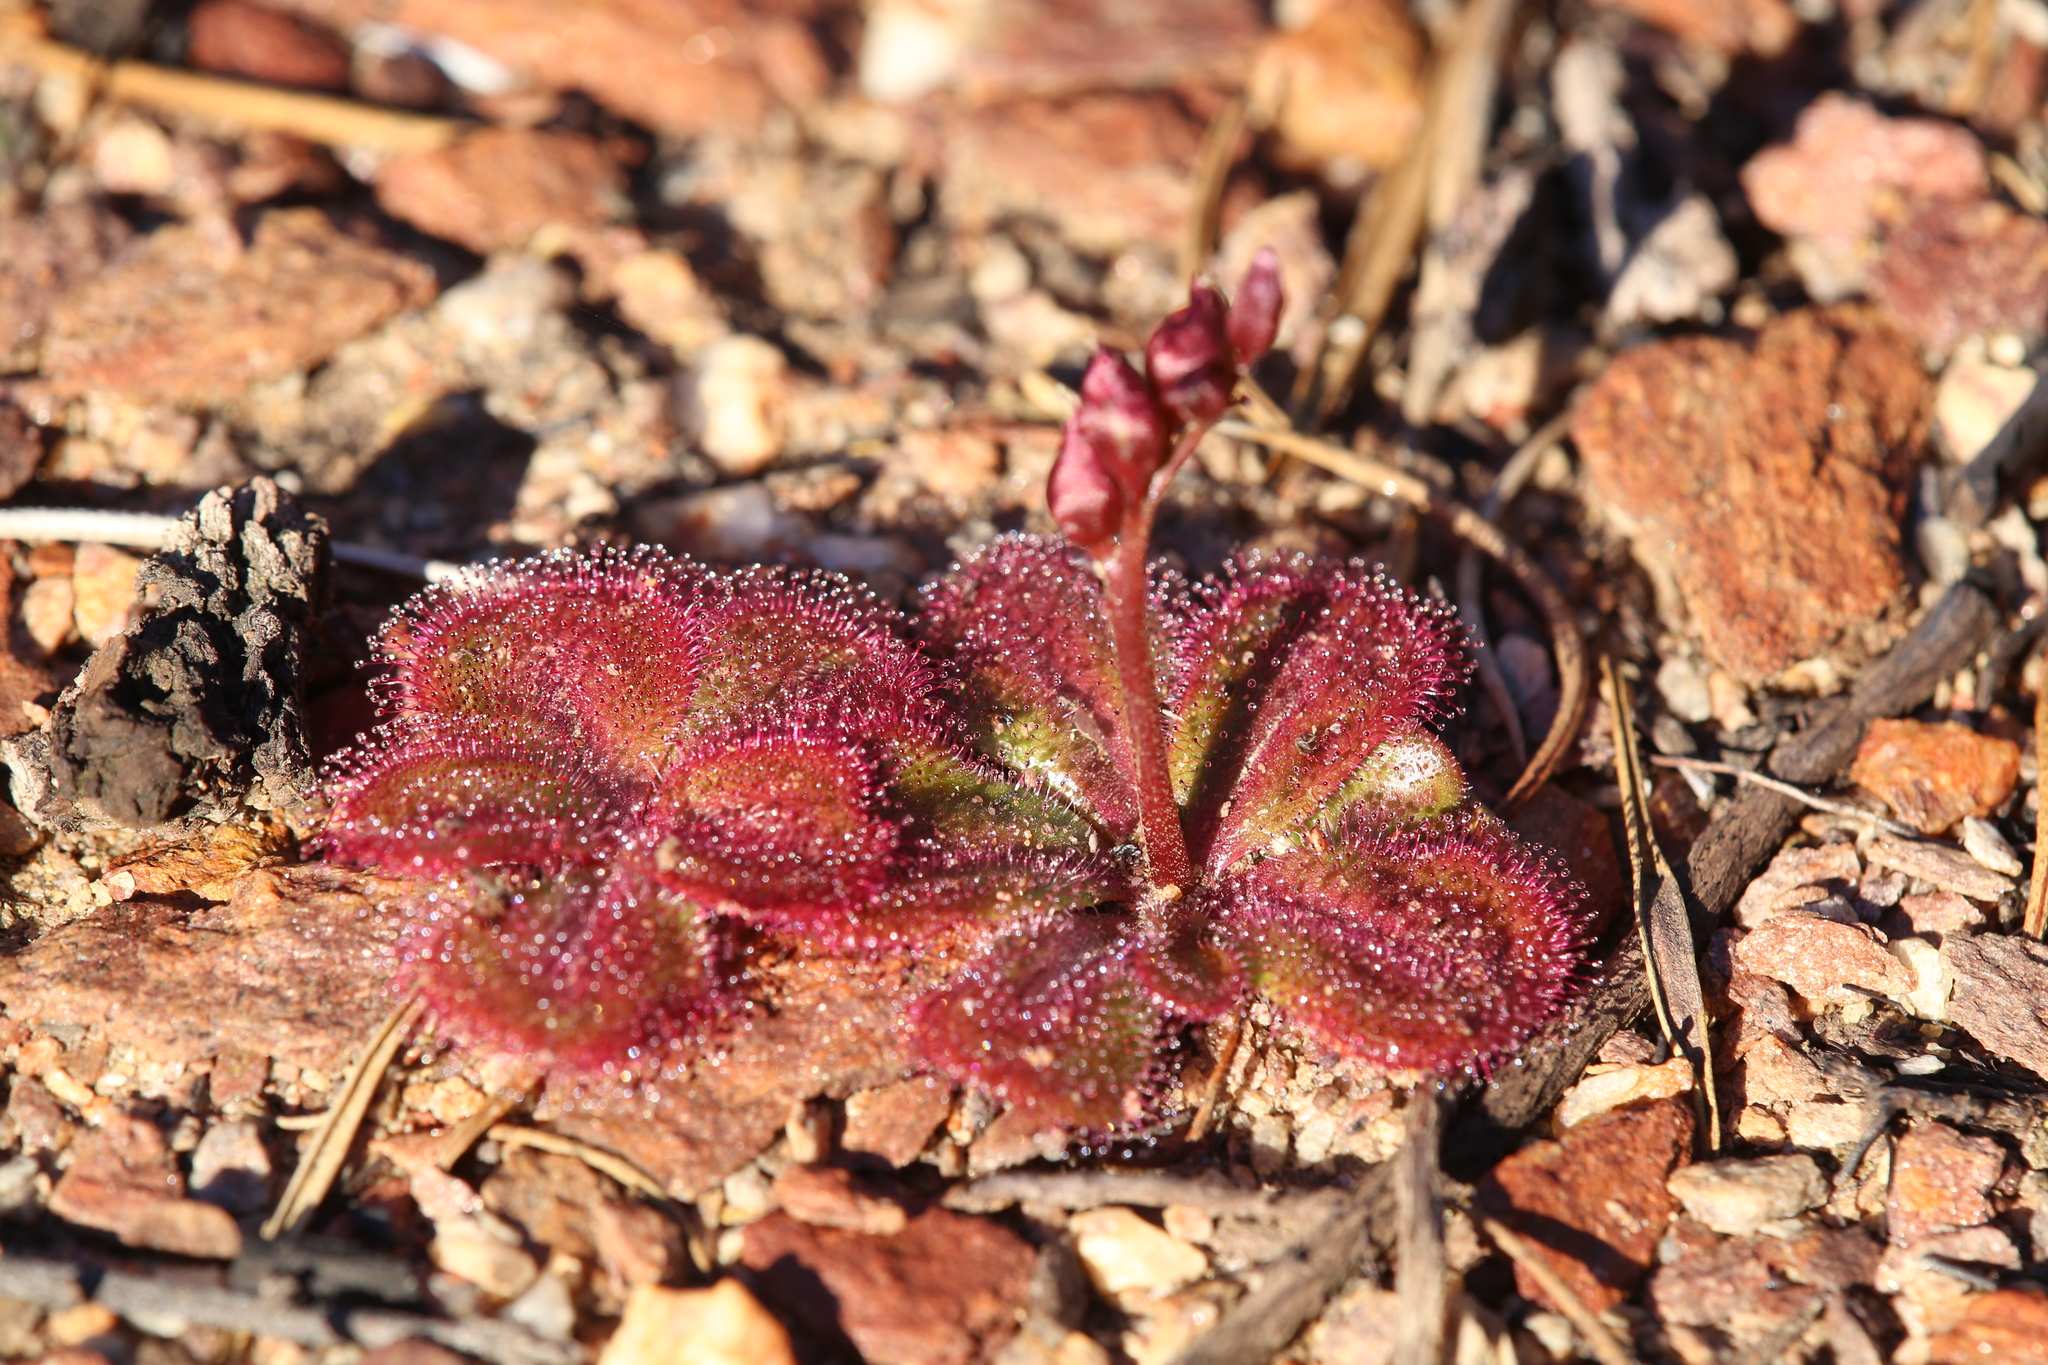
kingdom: Plantae
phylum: Tracheophyta
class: Magnoliopsida
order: Caryophyllales
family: Droseraceae
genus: Drosera
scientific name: Drosera erythrorhiza
